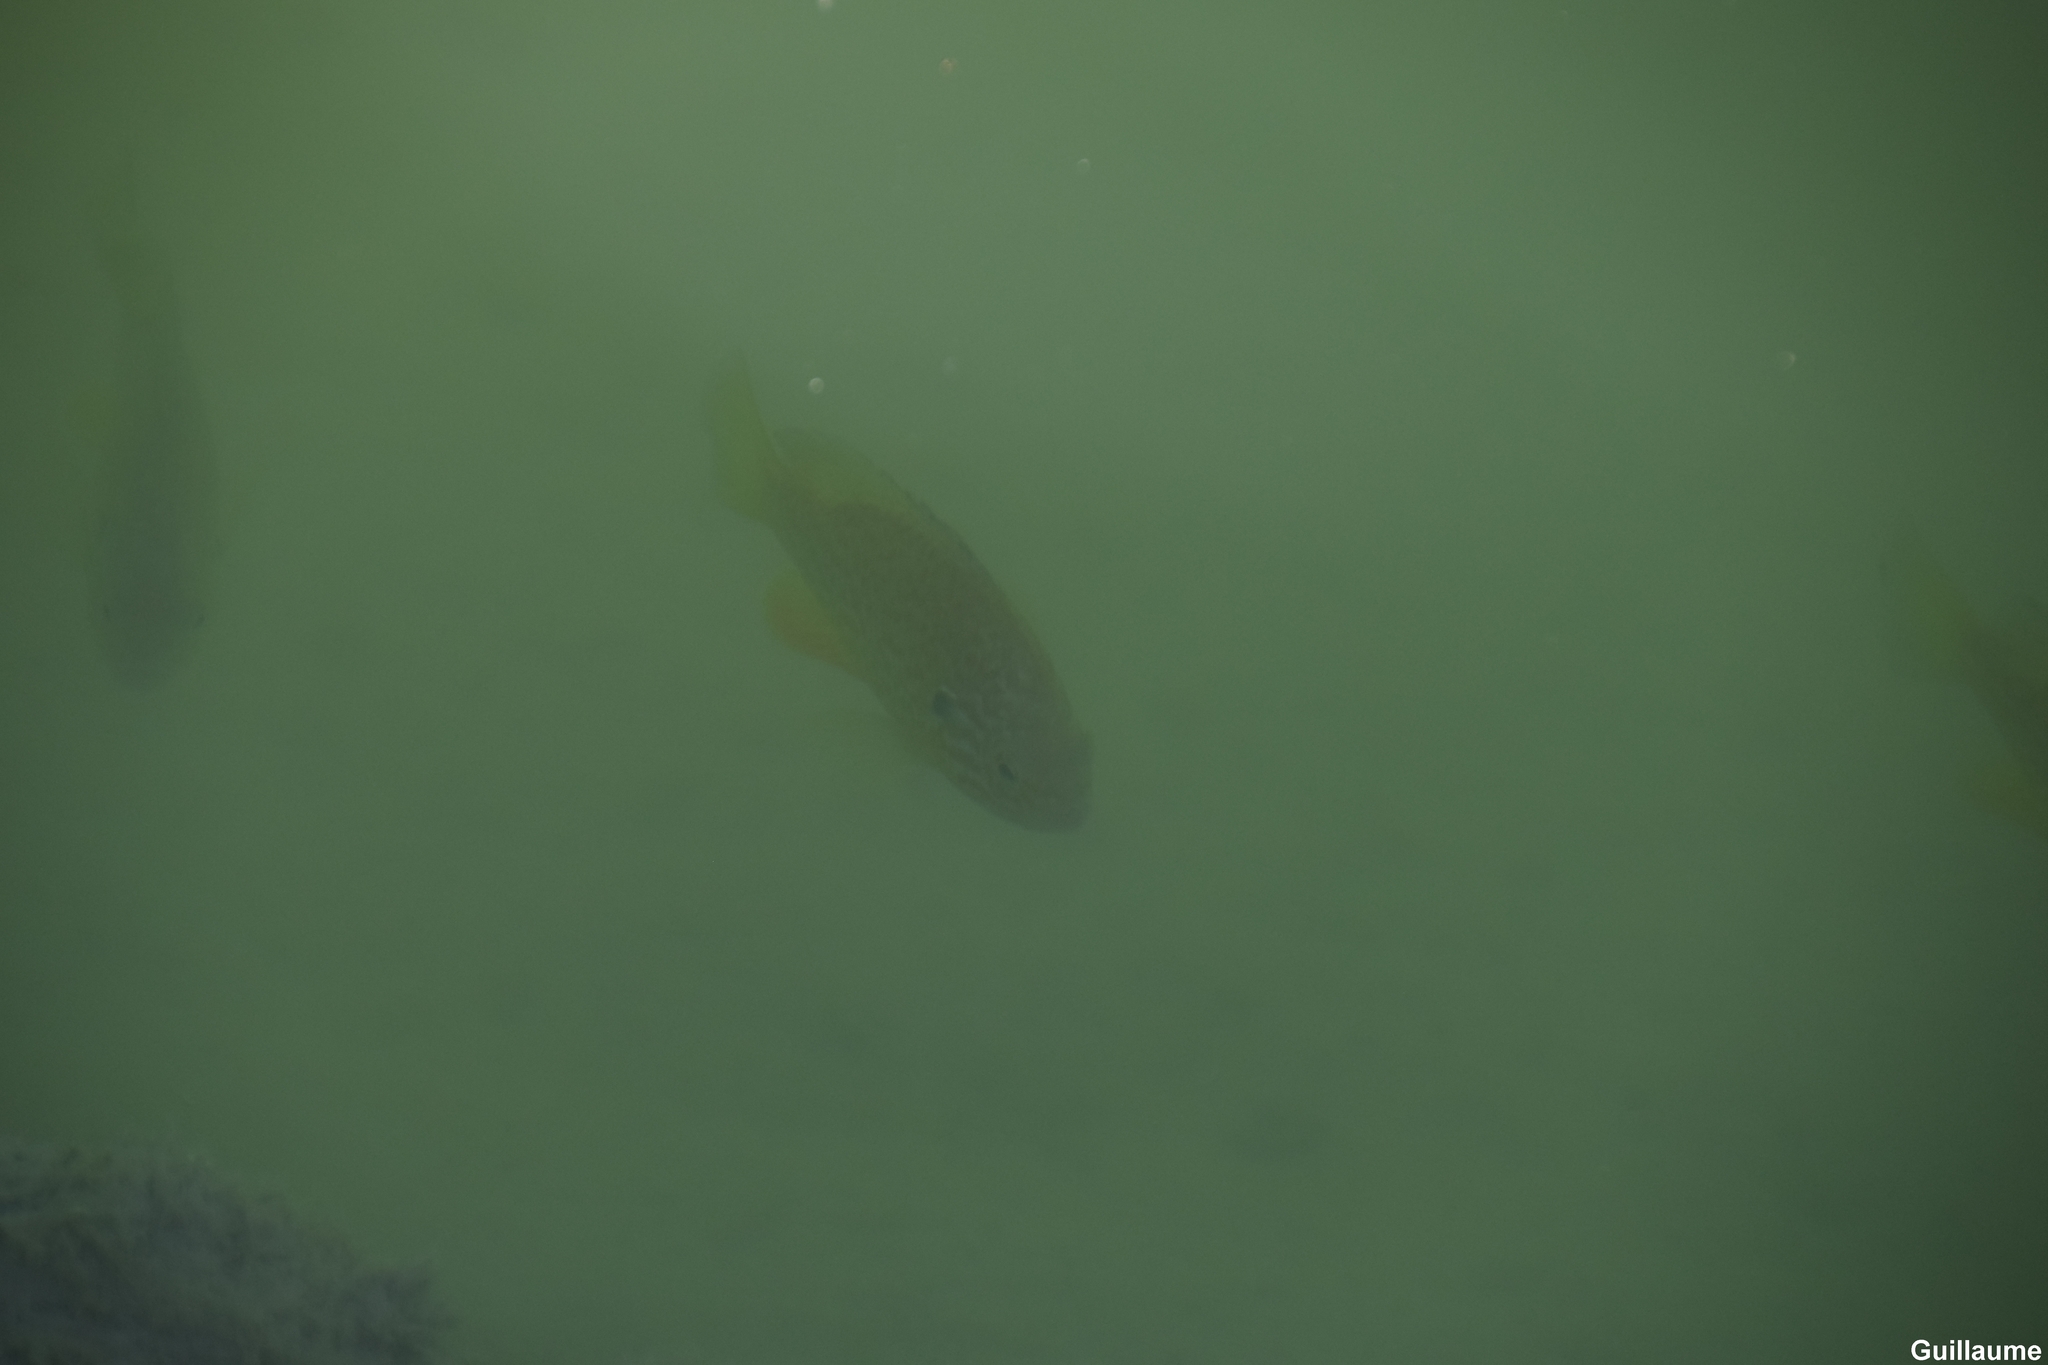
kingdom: Animalia
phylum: Chordata
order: Perciformes
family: Centrarchidae
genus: Lepomis
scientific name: Lepomis gibbosus
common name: Pumpkinseed
